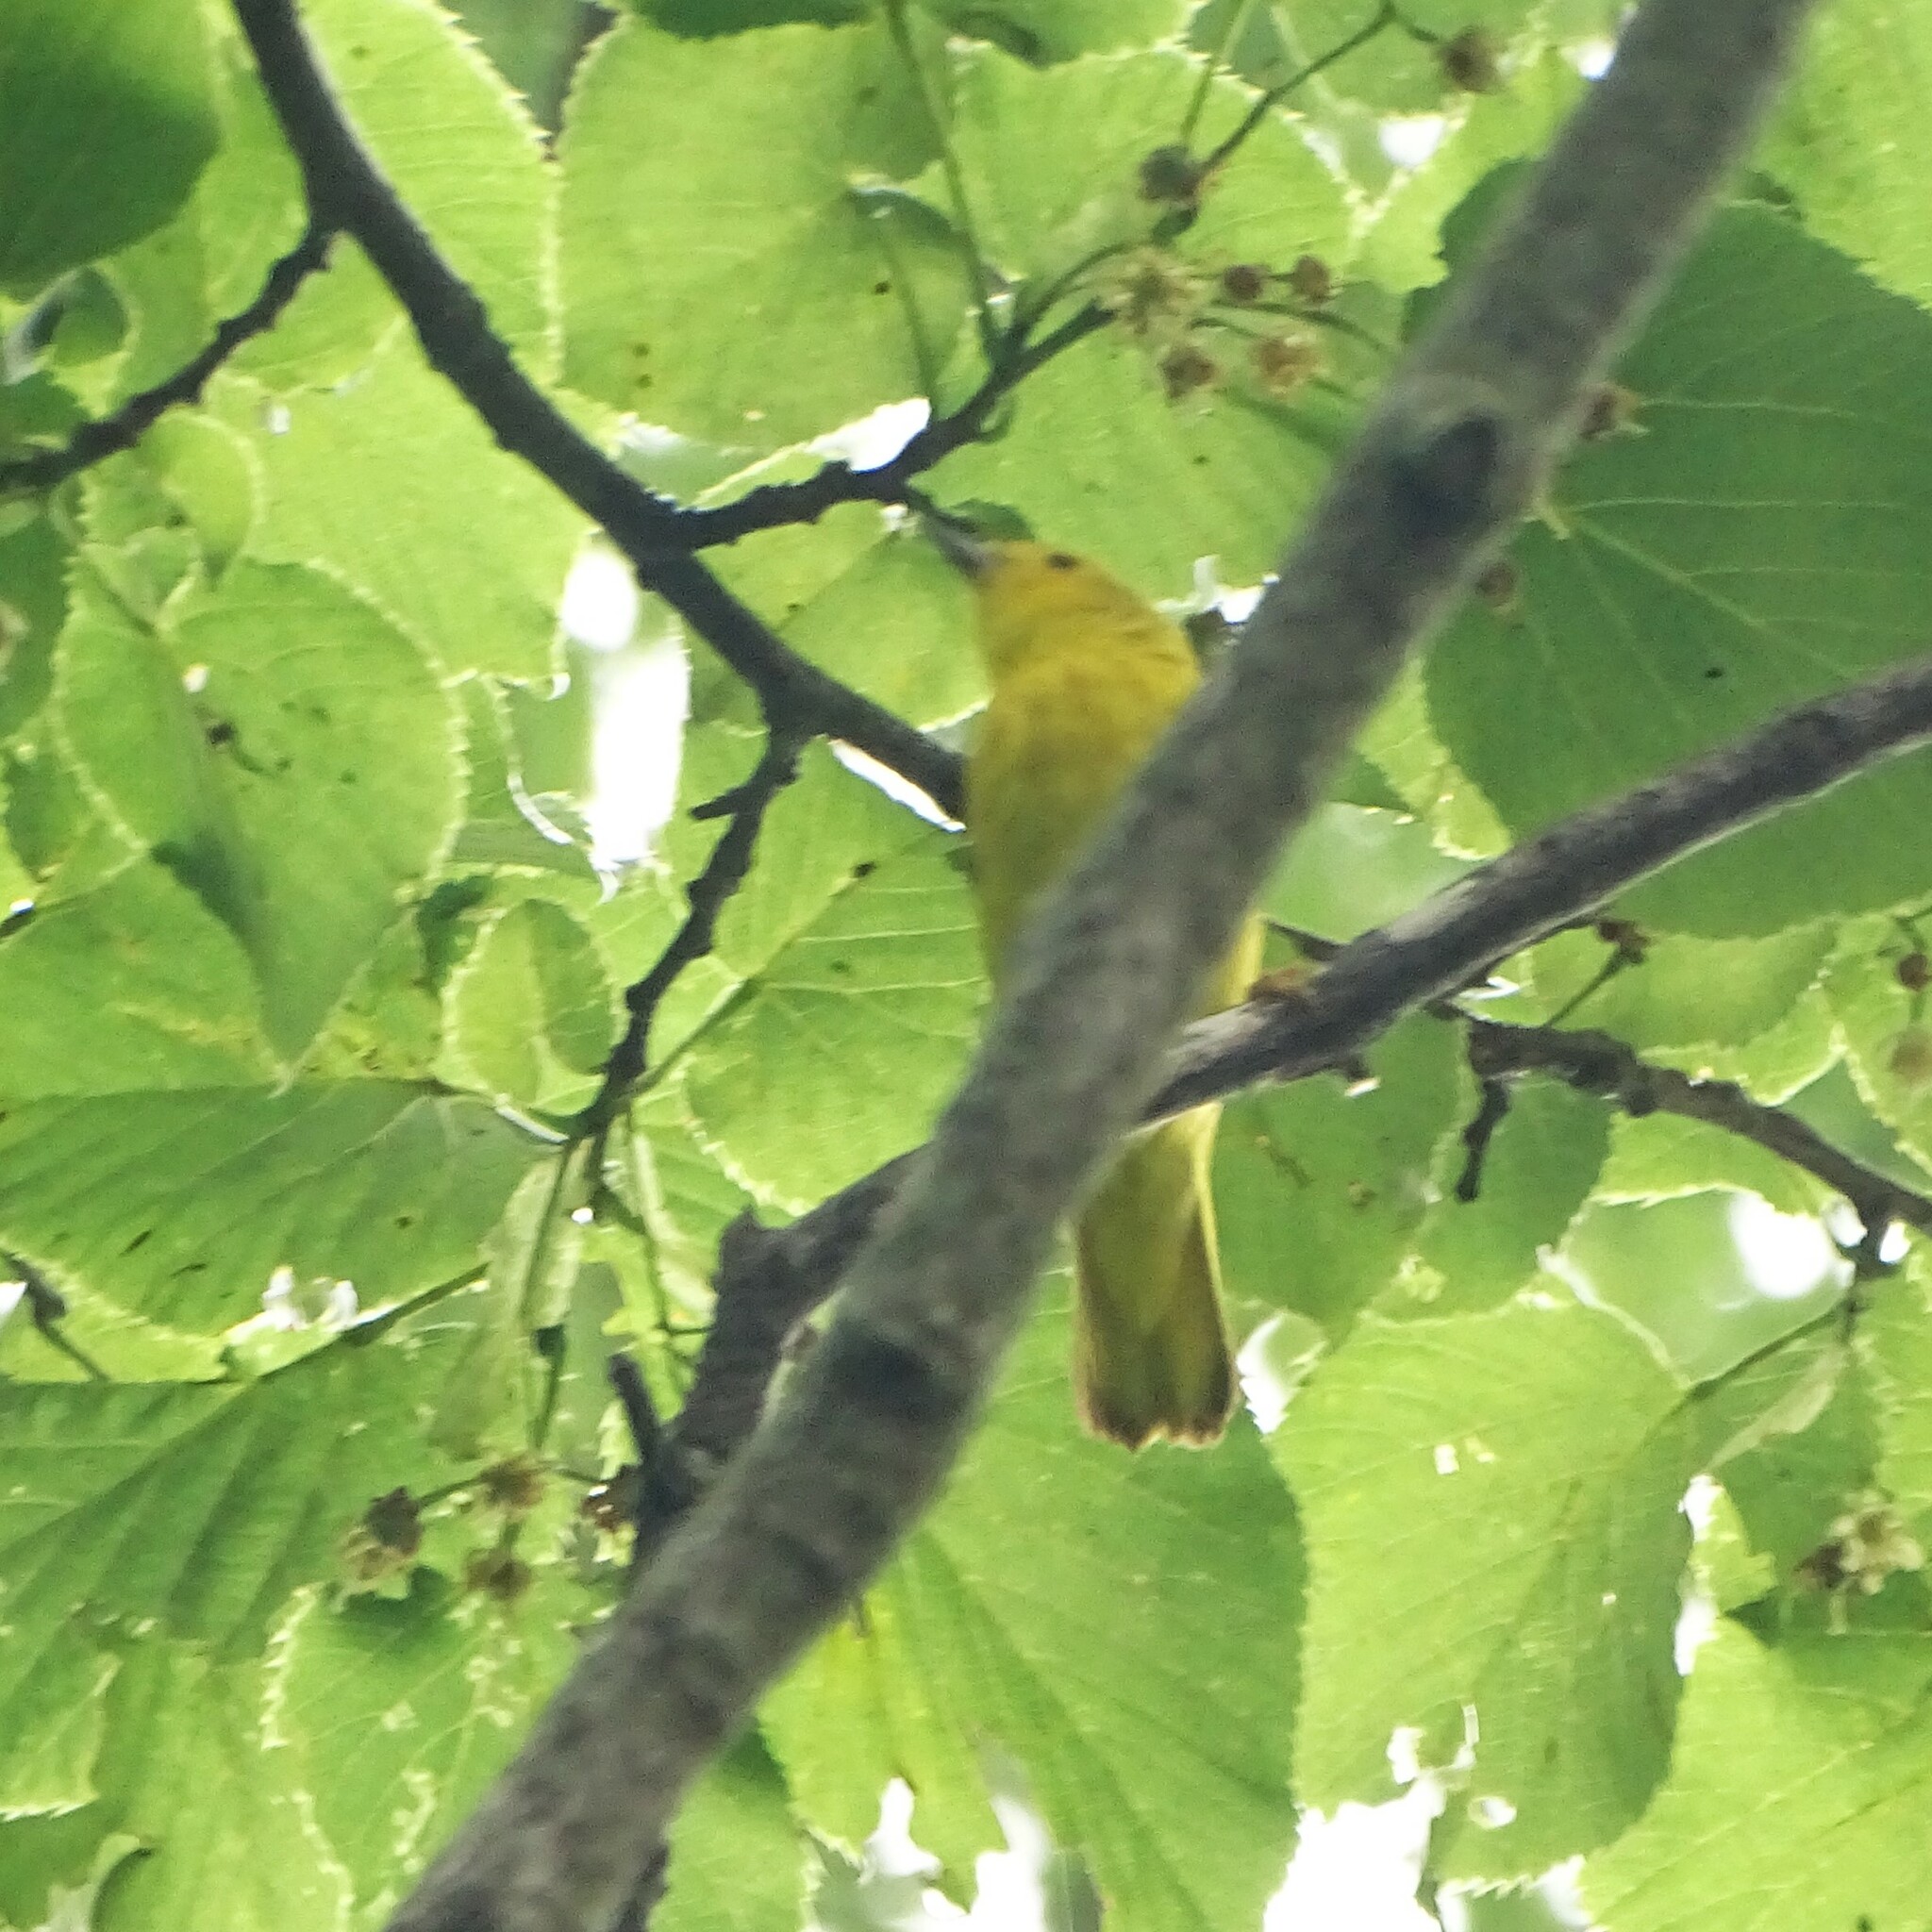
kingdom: Animalia
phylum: Chordata
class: Aves
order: Passeriformes
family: Parulidae
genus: Setophaga
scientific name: Setophaga petechia
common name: Yellow warbler
